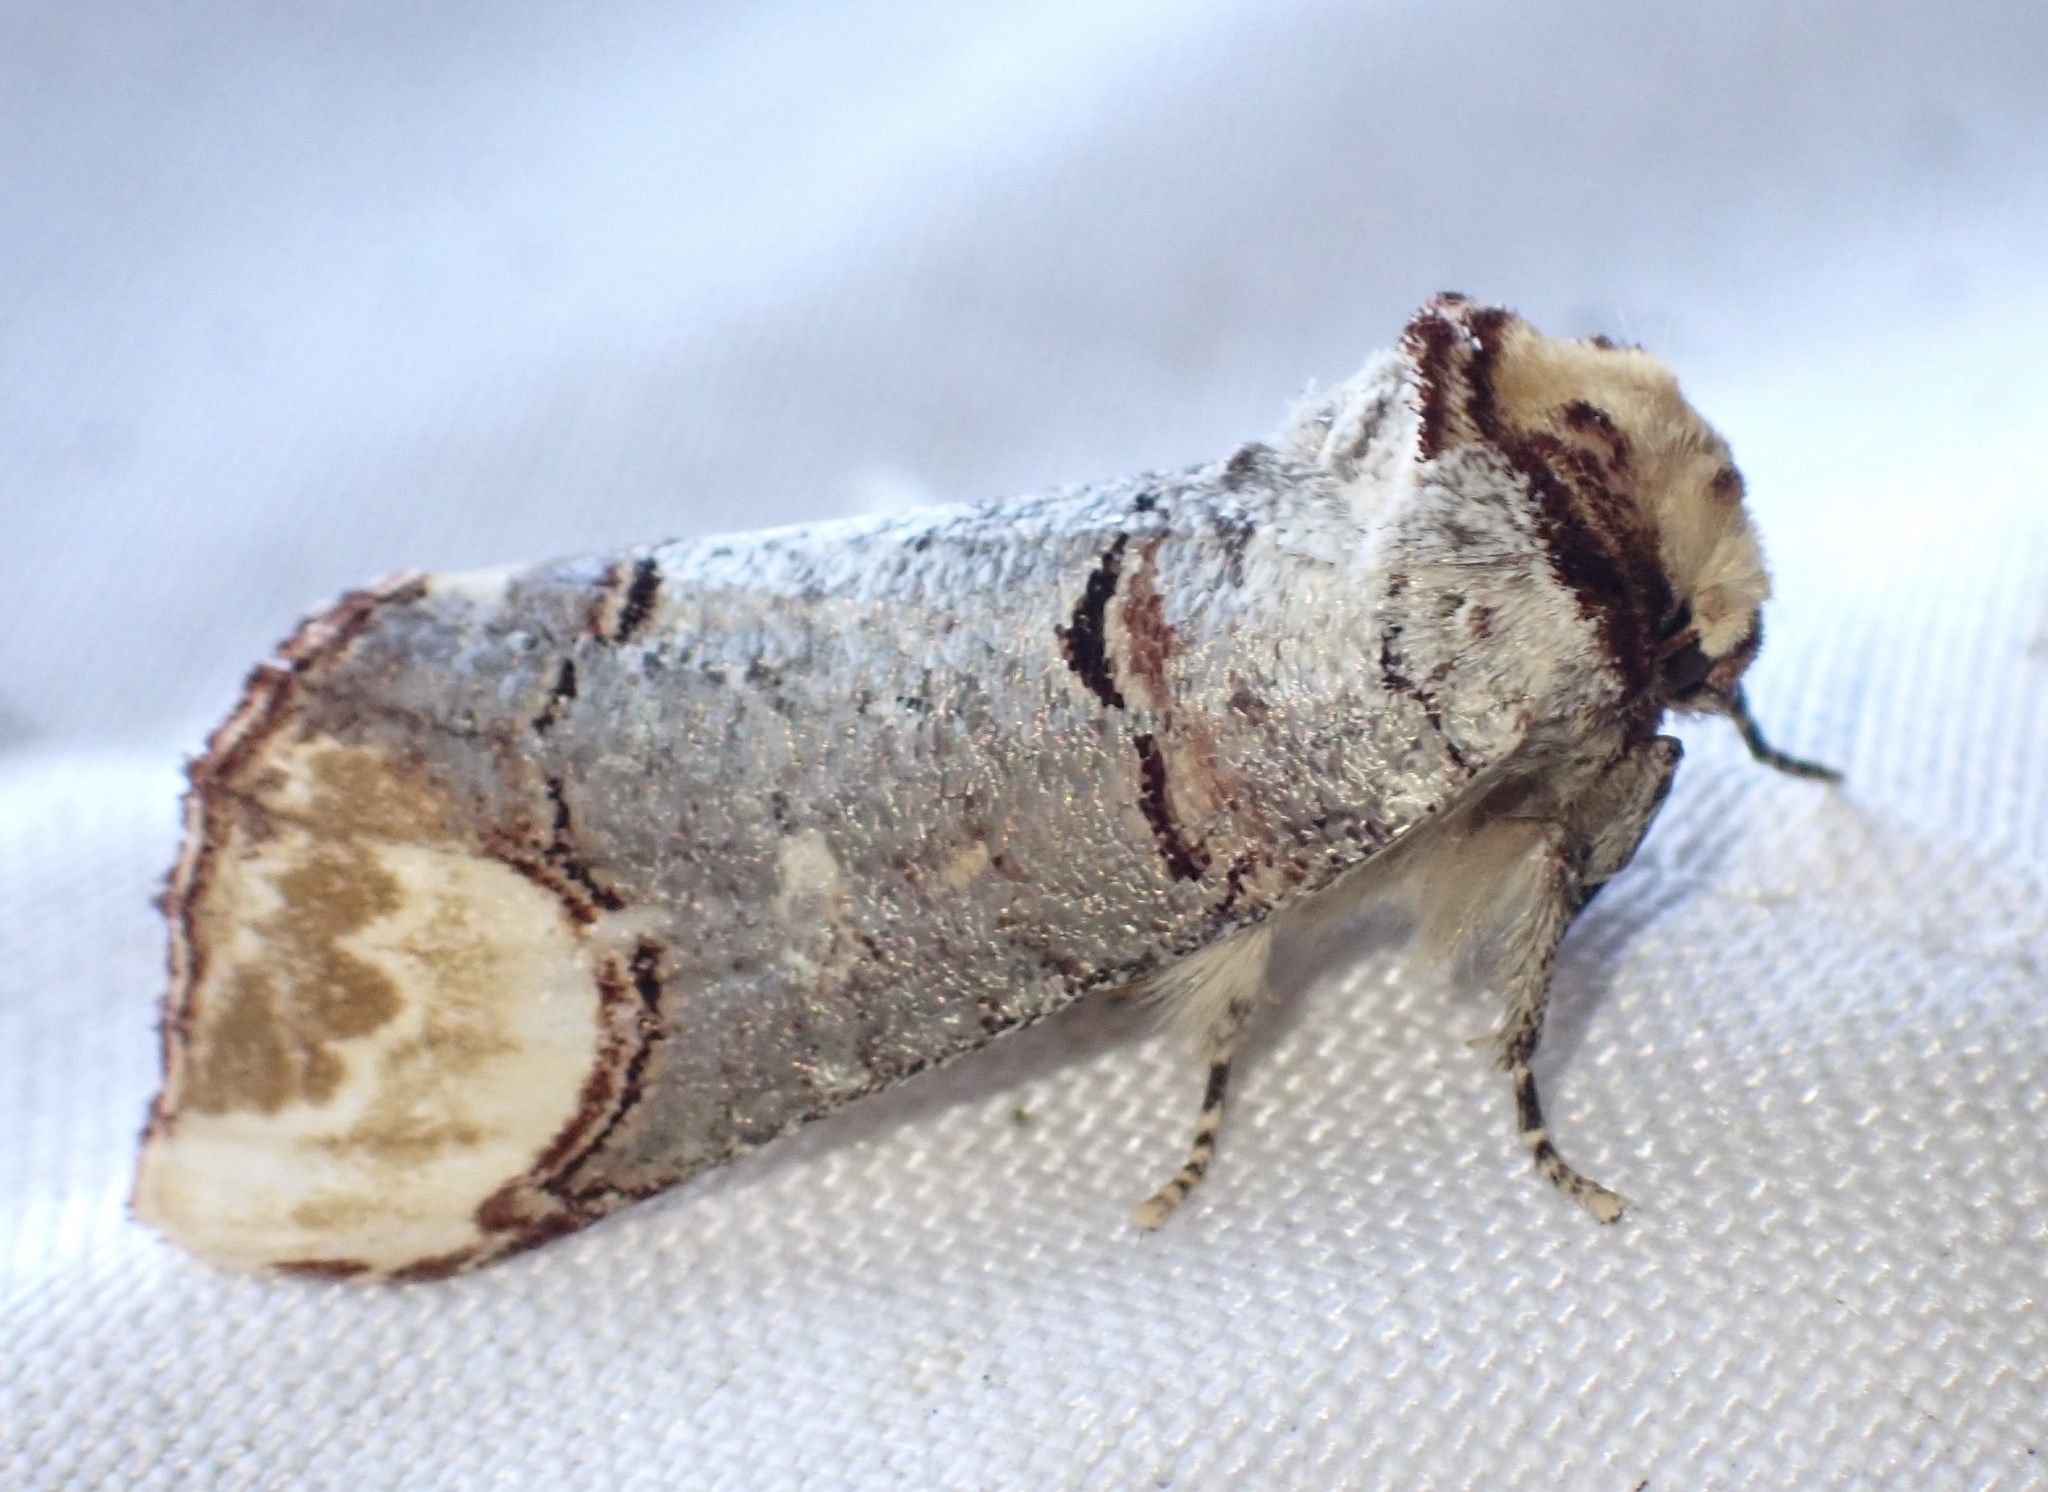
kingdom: Animalia
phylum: Arthropoda
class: Insecta
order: Lepidoptera
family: Notodontidae
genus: Phalera
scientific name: Phalera bucephala
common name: Buff-tip
